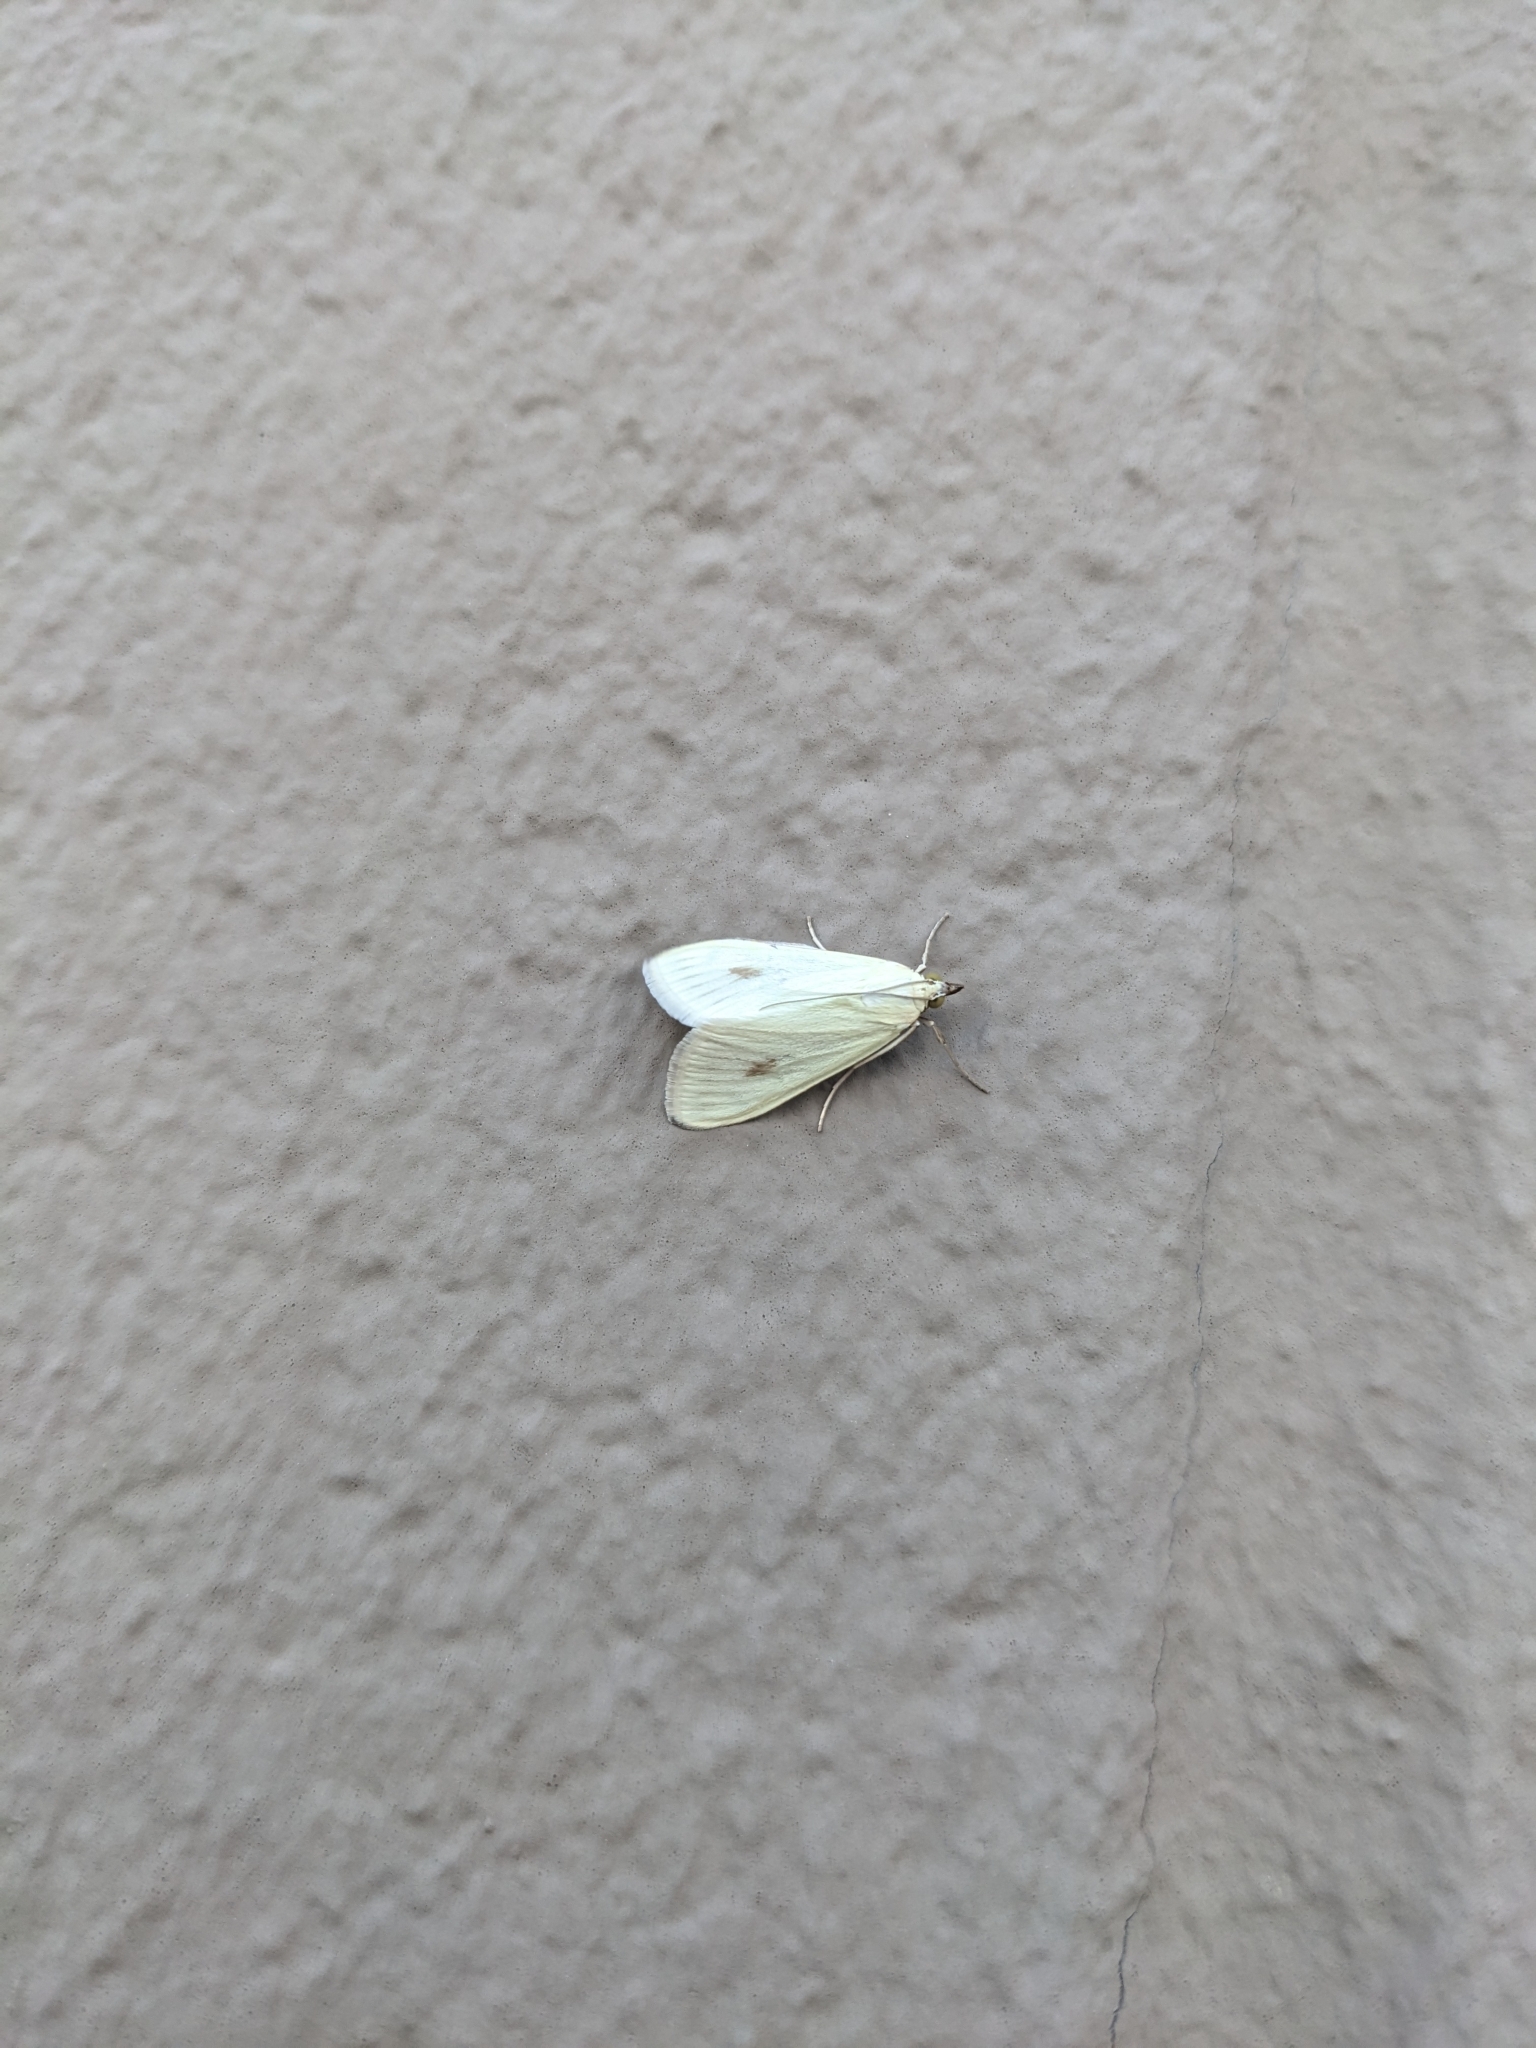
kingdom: Animalia
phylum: Arthropoda
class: Insecta
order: Lepidoptera
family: Crambidae
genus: Sitochroa
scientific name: Sitochroa palealis
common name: Greenish-yellow sitochroa moth
